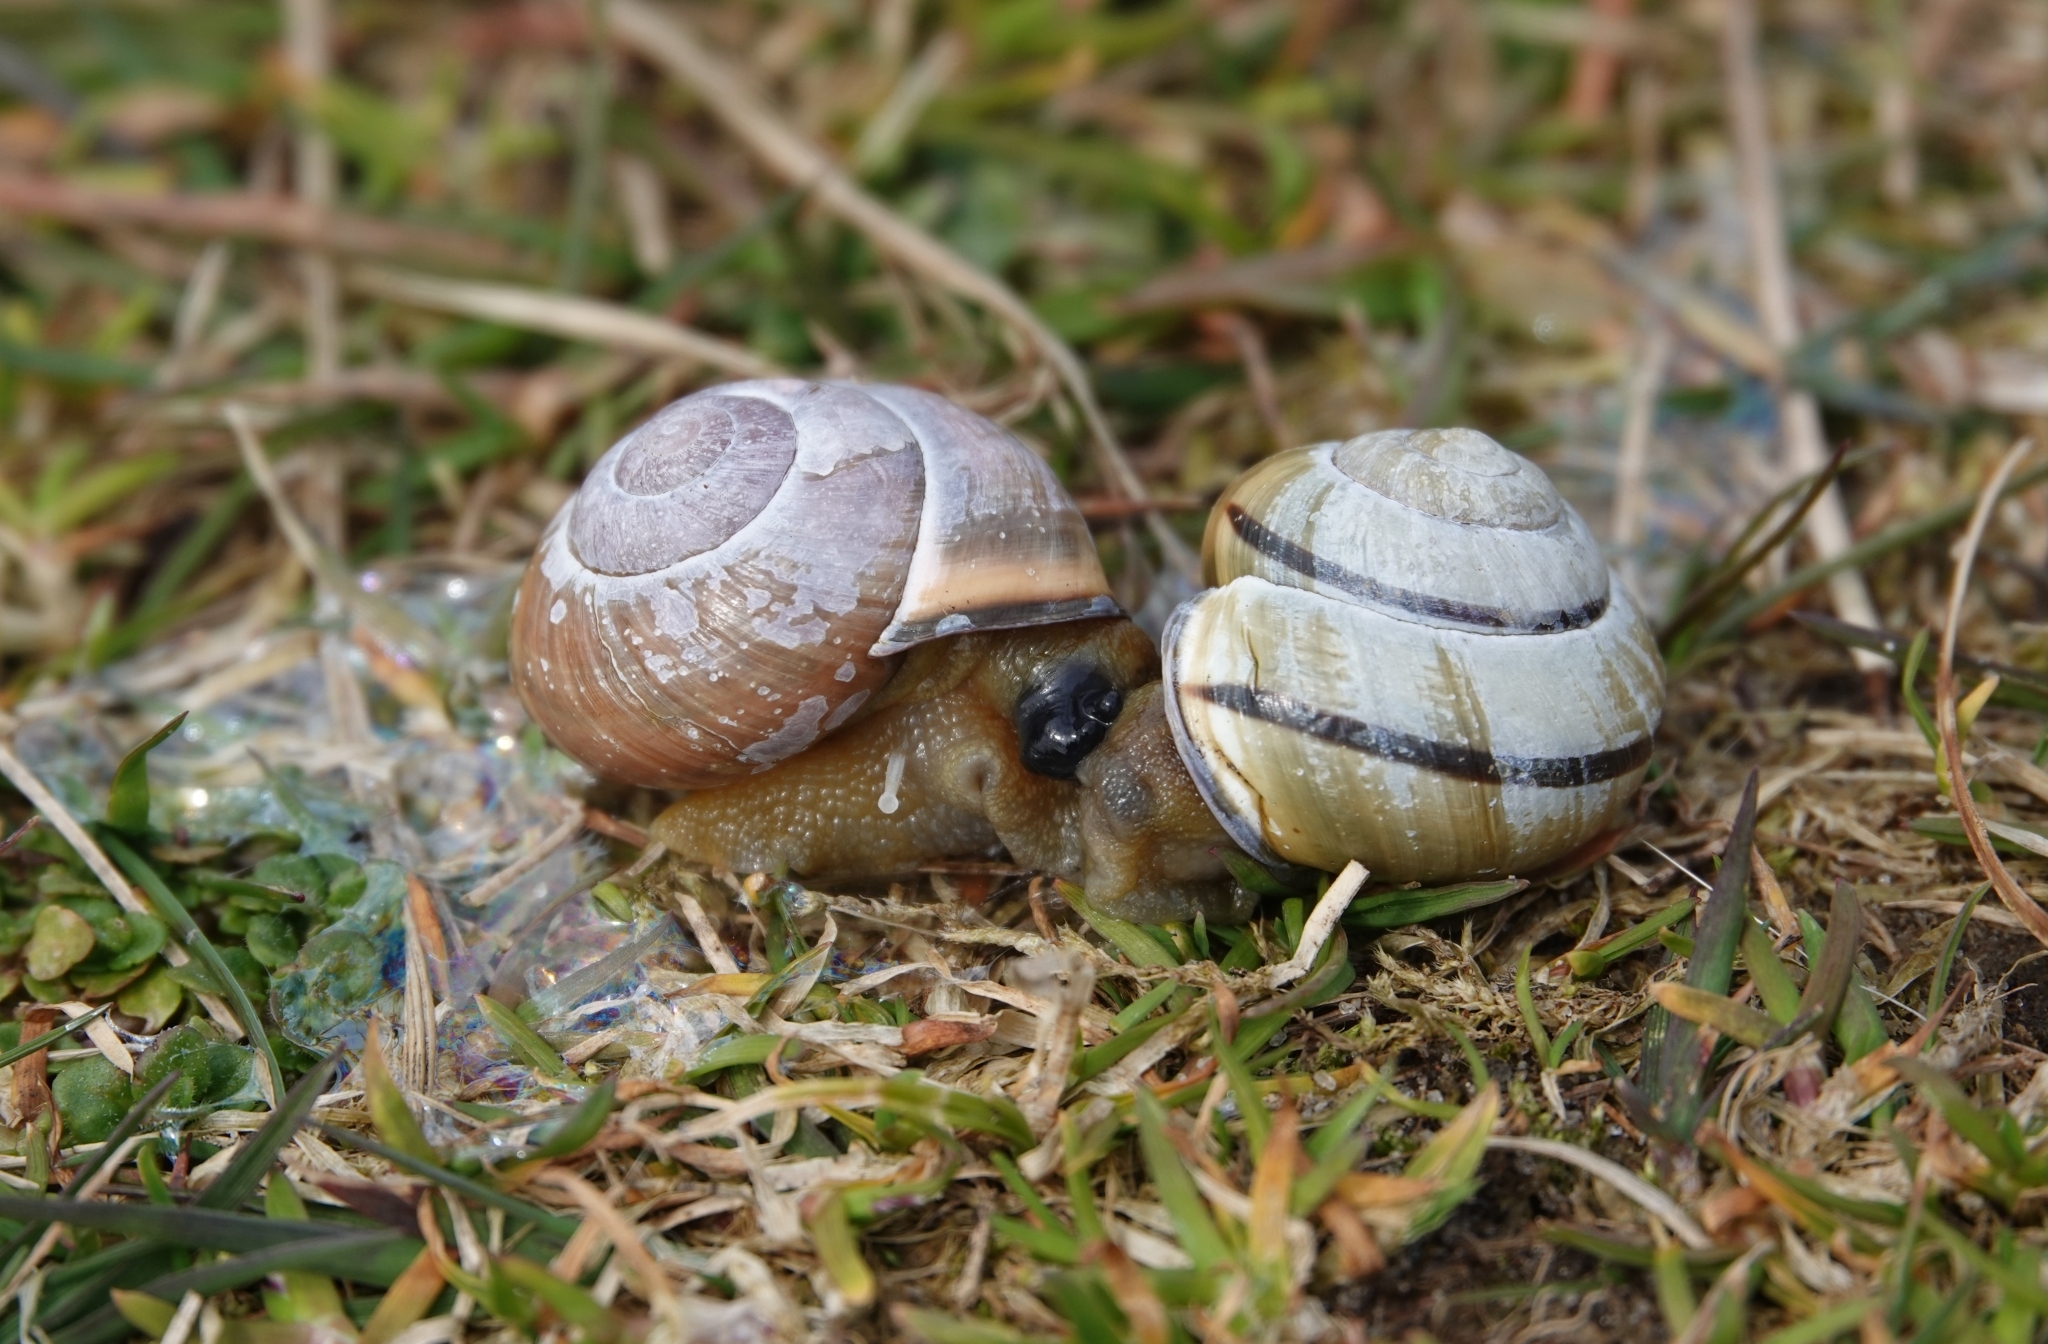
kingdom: Animalia
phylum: Mollusca
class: Gastropoda
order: Stylommatophora
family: Helicidae
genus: Cepaea
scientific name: Cepaea nemoralis
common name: Grovesnail
